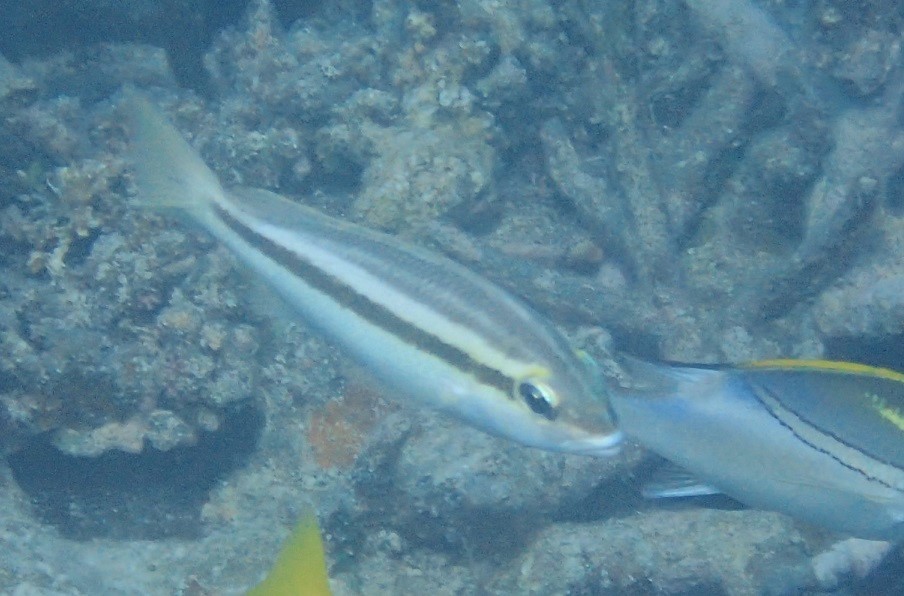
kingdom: Animalia
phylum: Chordata
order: Perciformes
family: Nemipteridae
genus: Scolopsis
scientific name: Scolopsis affinis
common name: Peters' monocle bream
